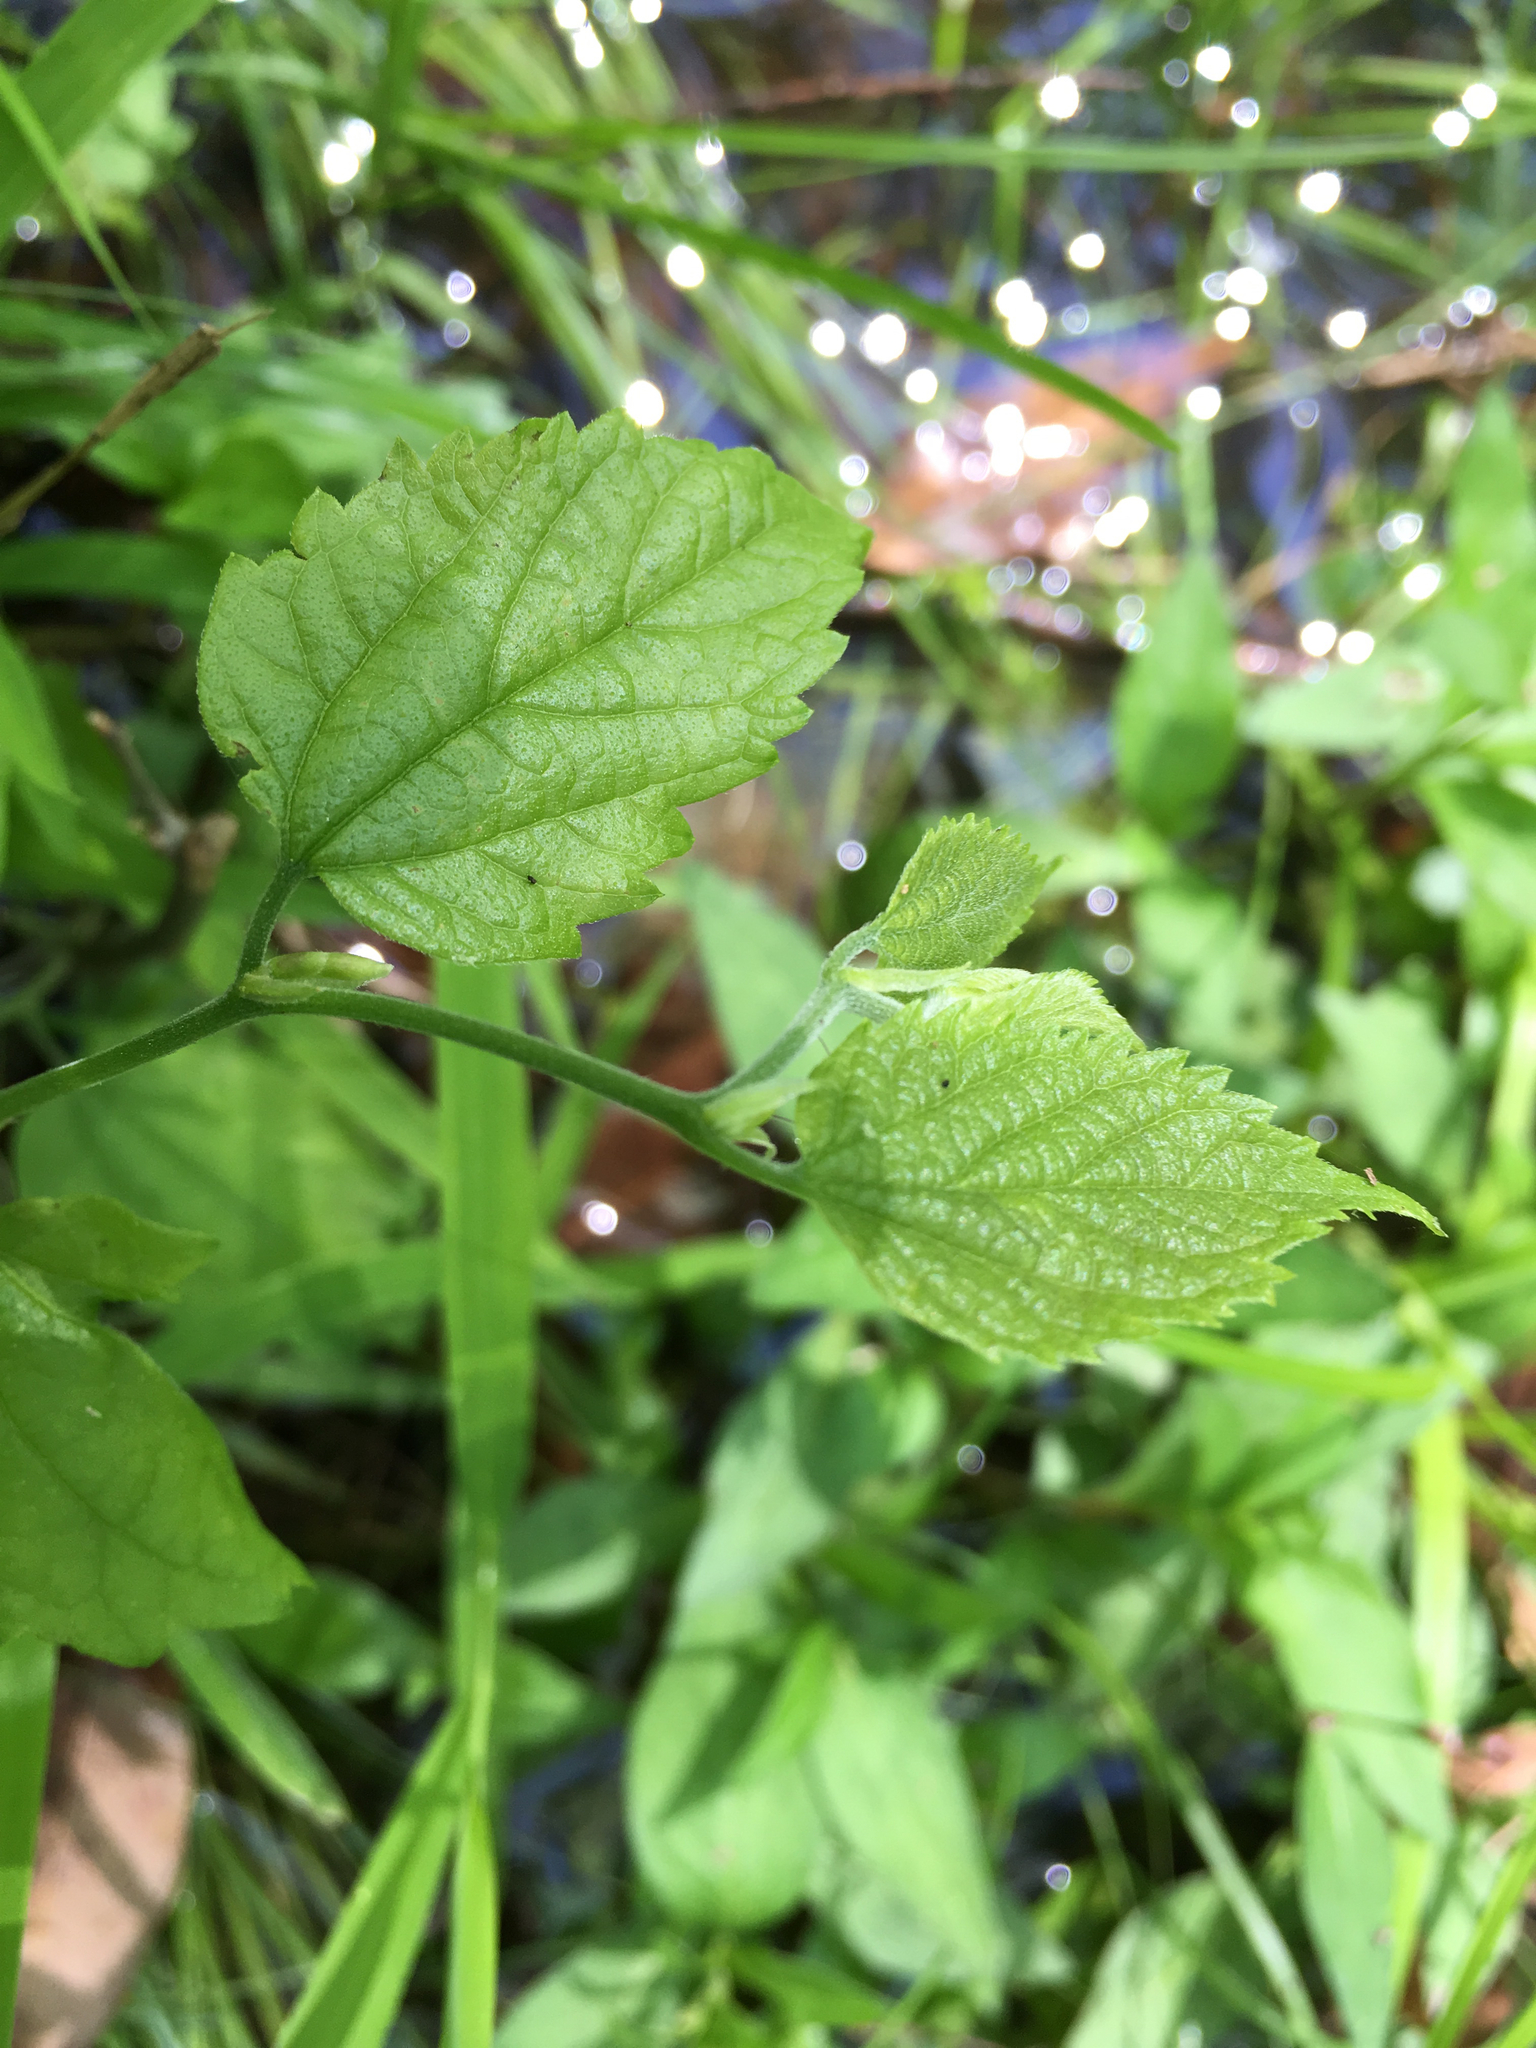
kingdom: Plantae
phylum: Tracheophyta
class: Magnoliopsida
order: Rosales
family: Cannabaceae
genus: Celtis
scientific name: Celtis laevigata
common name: Sugarberry
